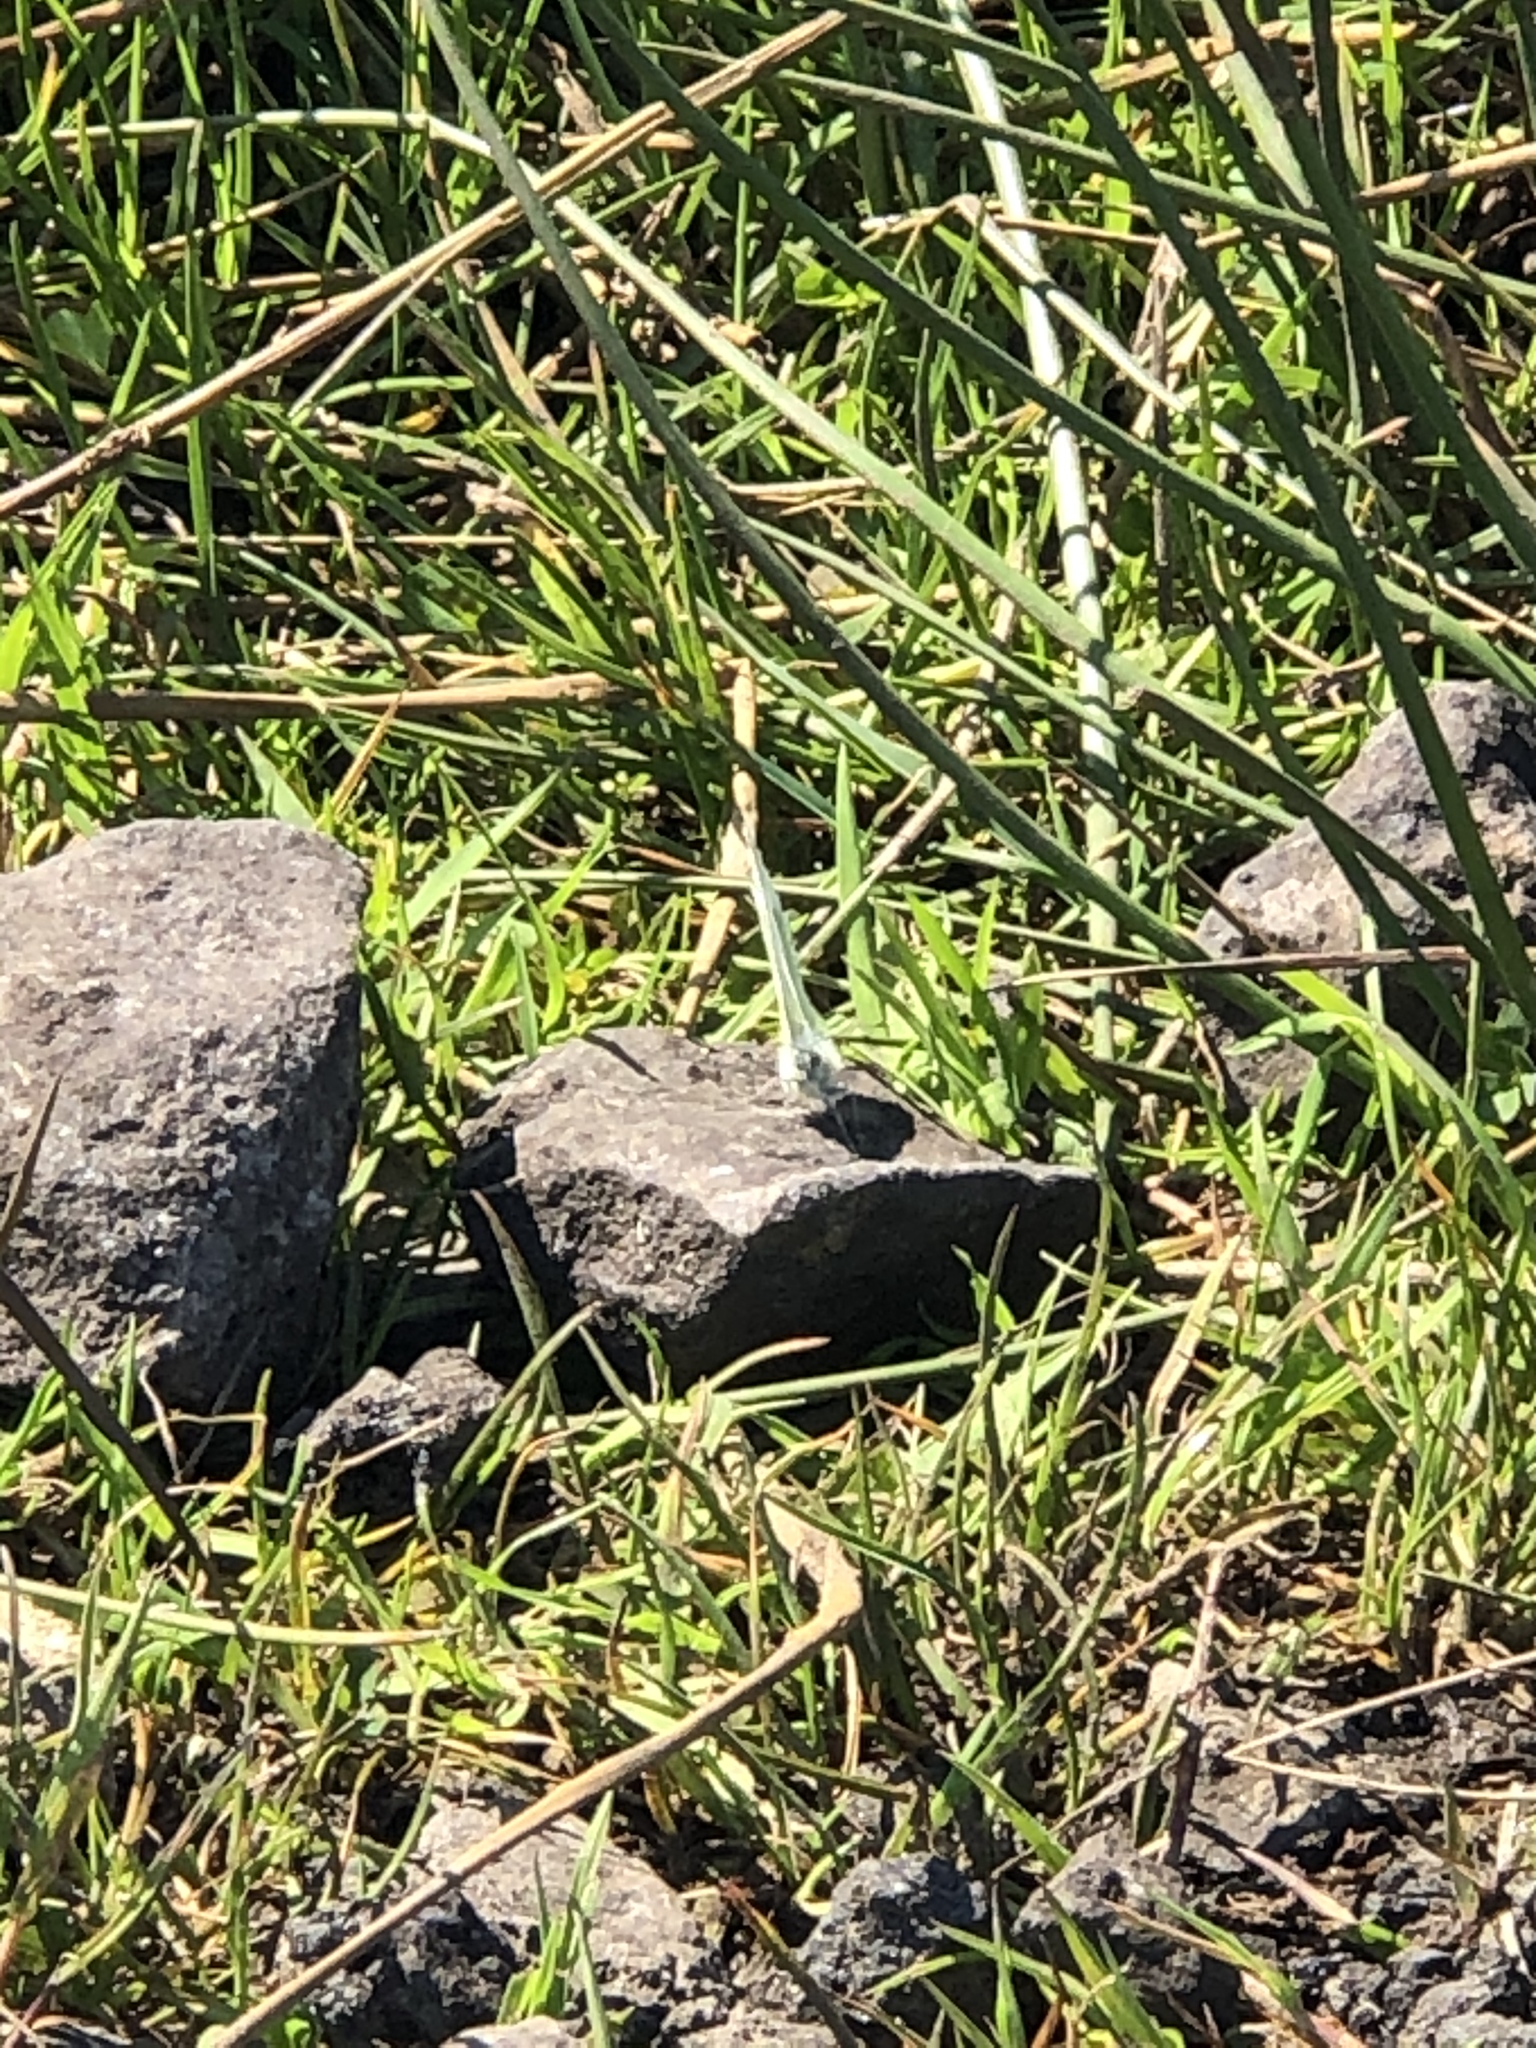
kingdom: Animalia
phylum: Arthropoda
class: Insecta
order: Lepidoptera
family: Pieridae
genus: Pieris
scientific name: Pieris napi
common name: Green-veined white
